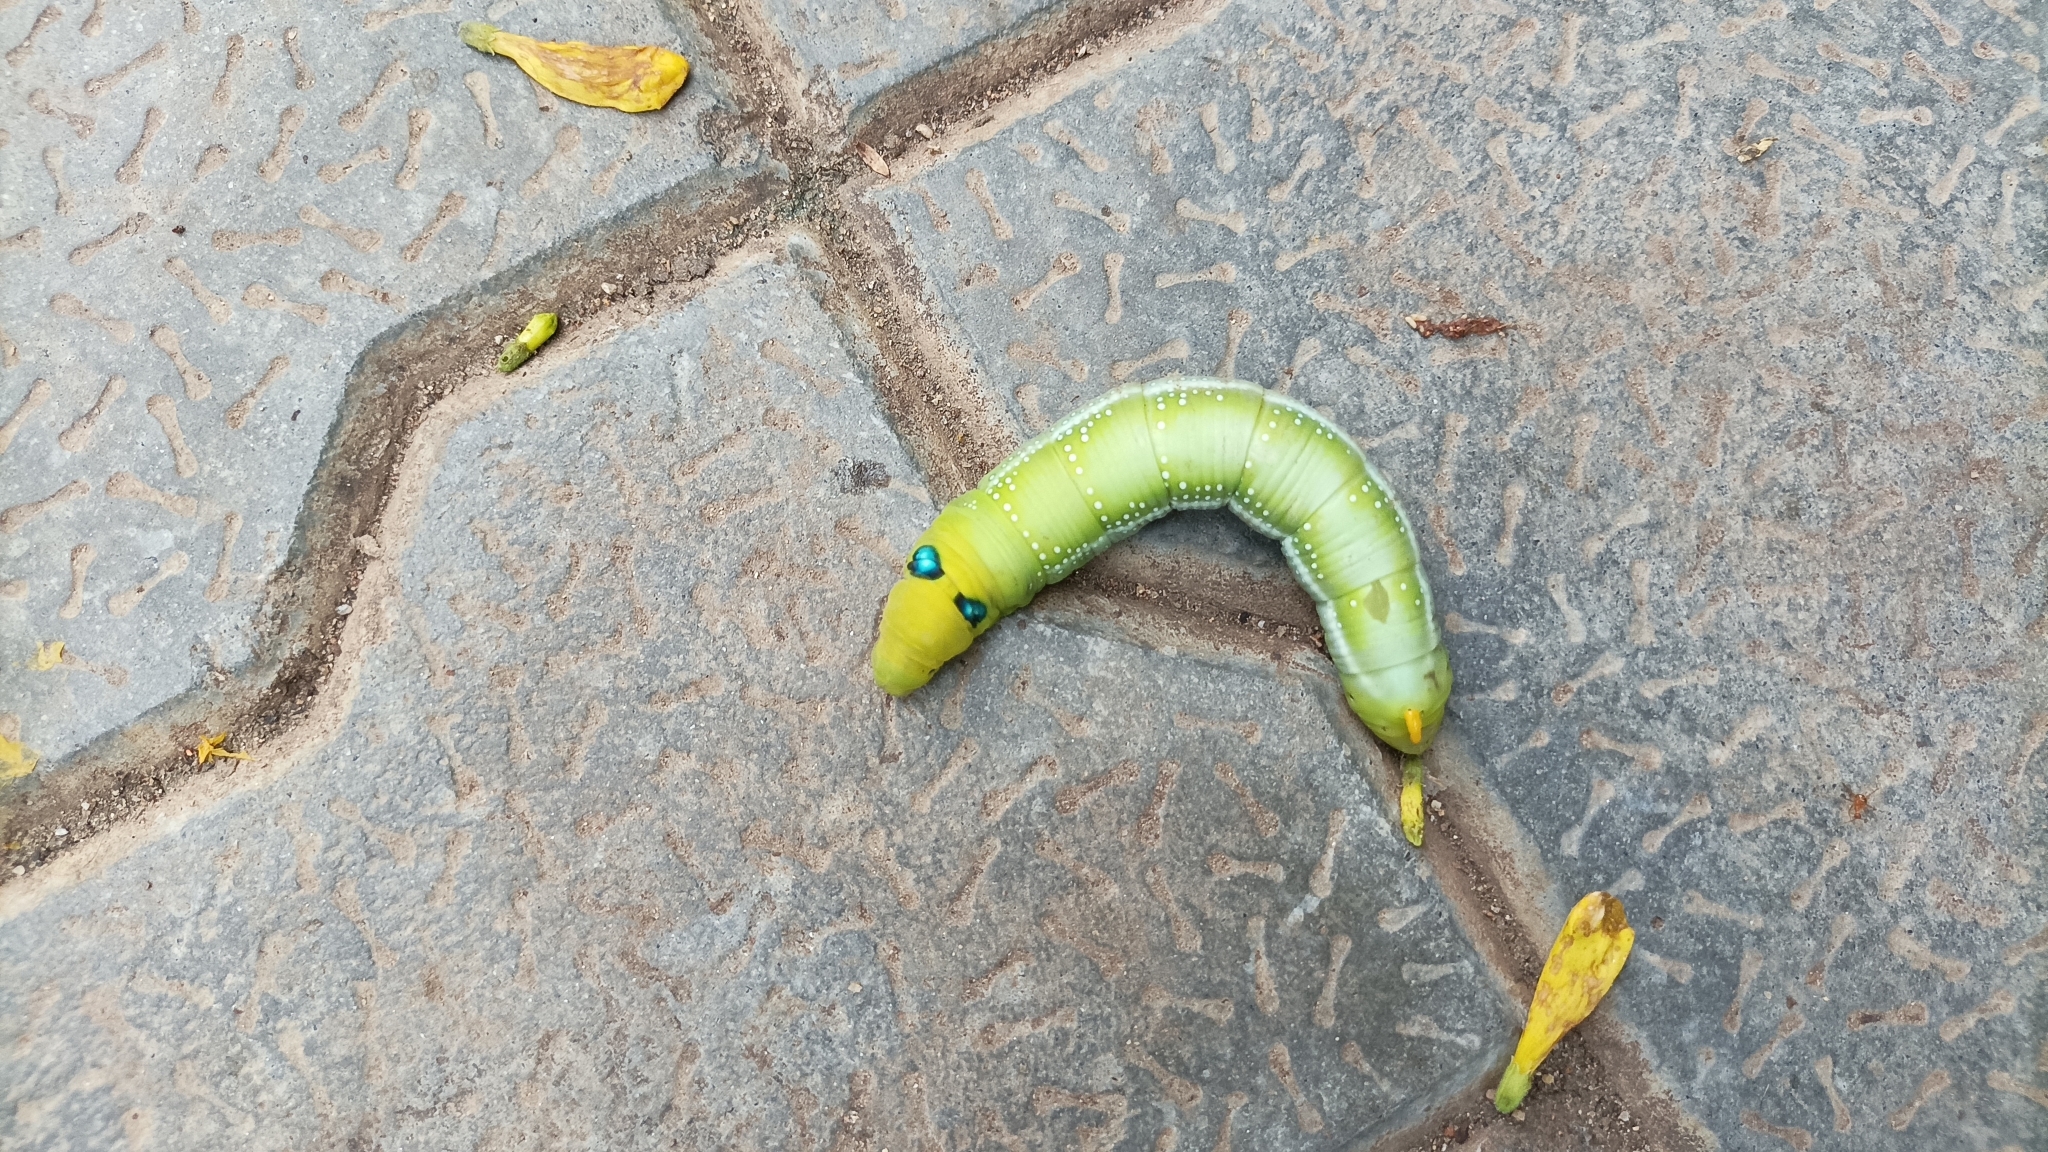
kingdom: Animalia
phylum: Arthropoda
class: Insecta
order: Lepidoptera
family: Sphingidae
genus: Daphnis
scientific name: Daphnis nerii
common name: Oleander hawk-moth
